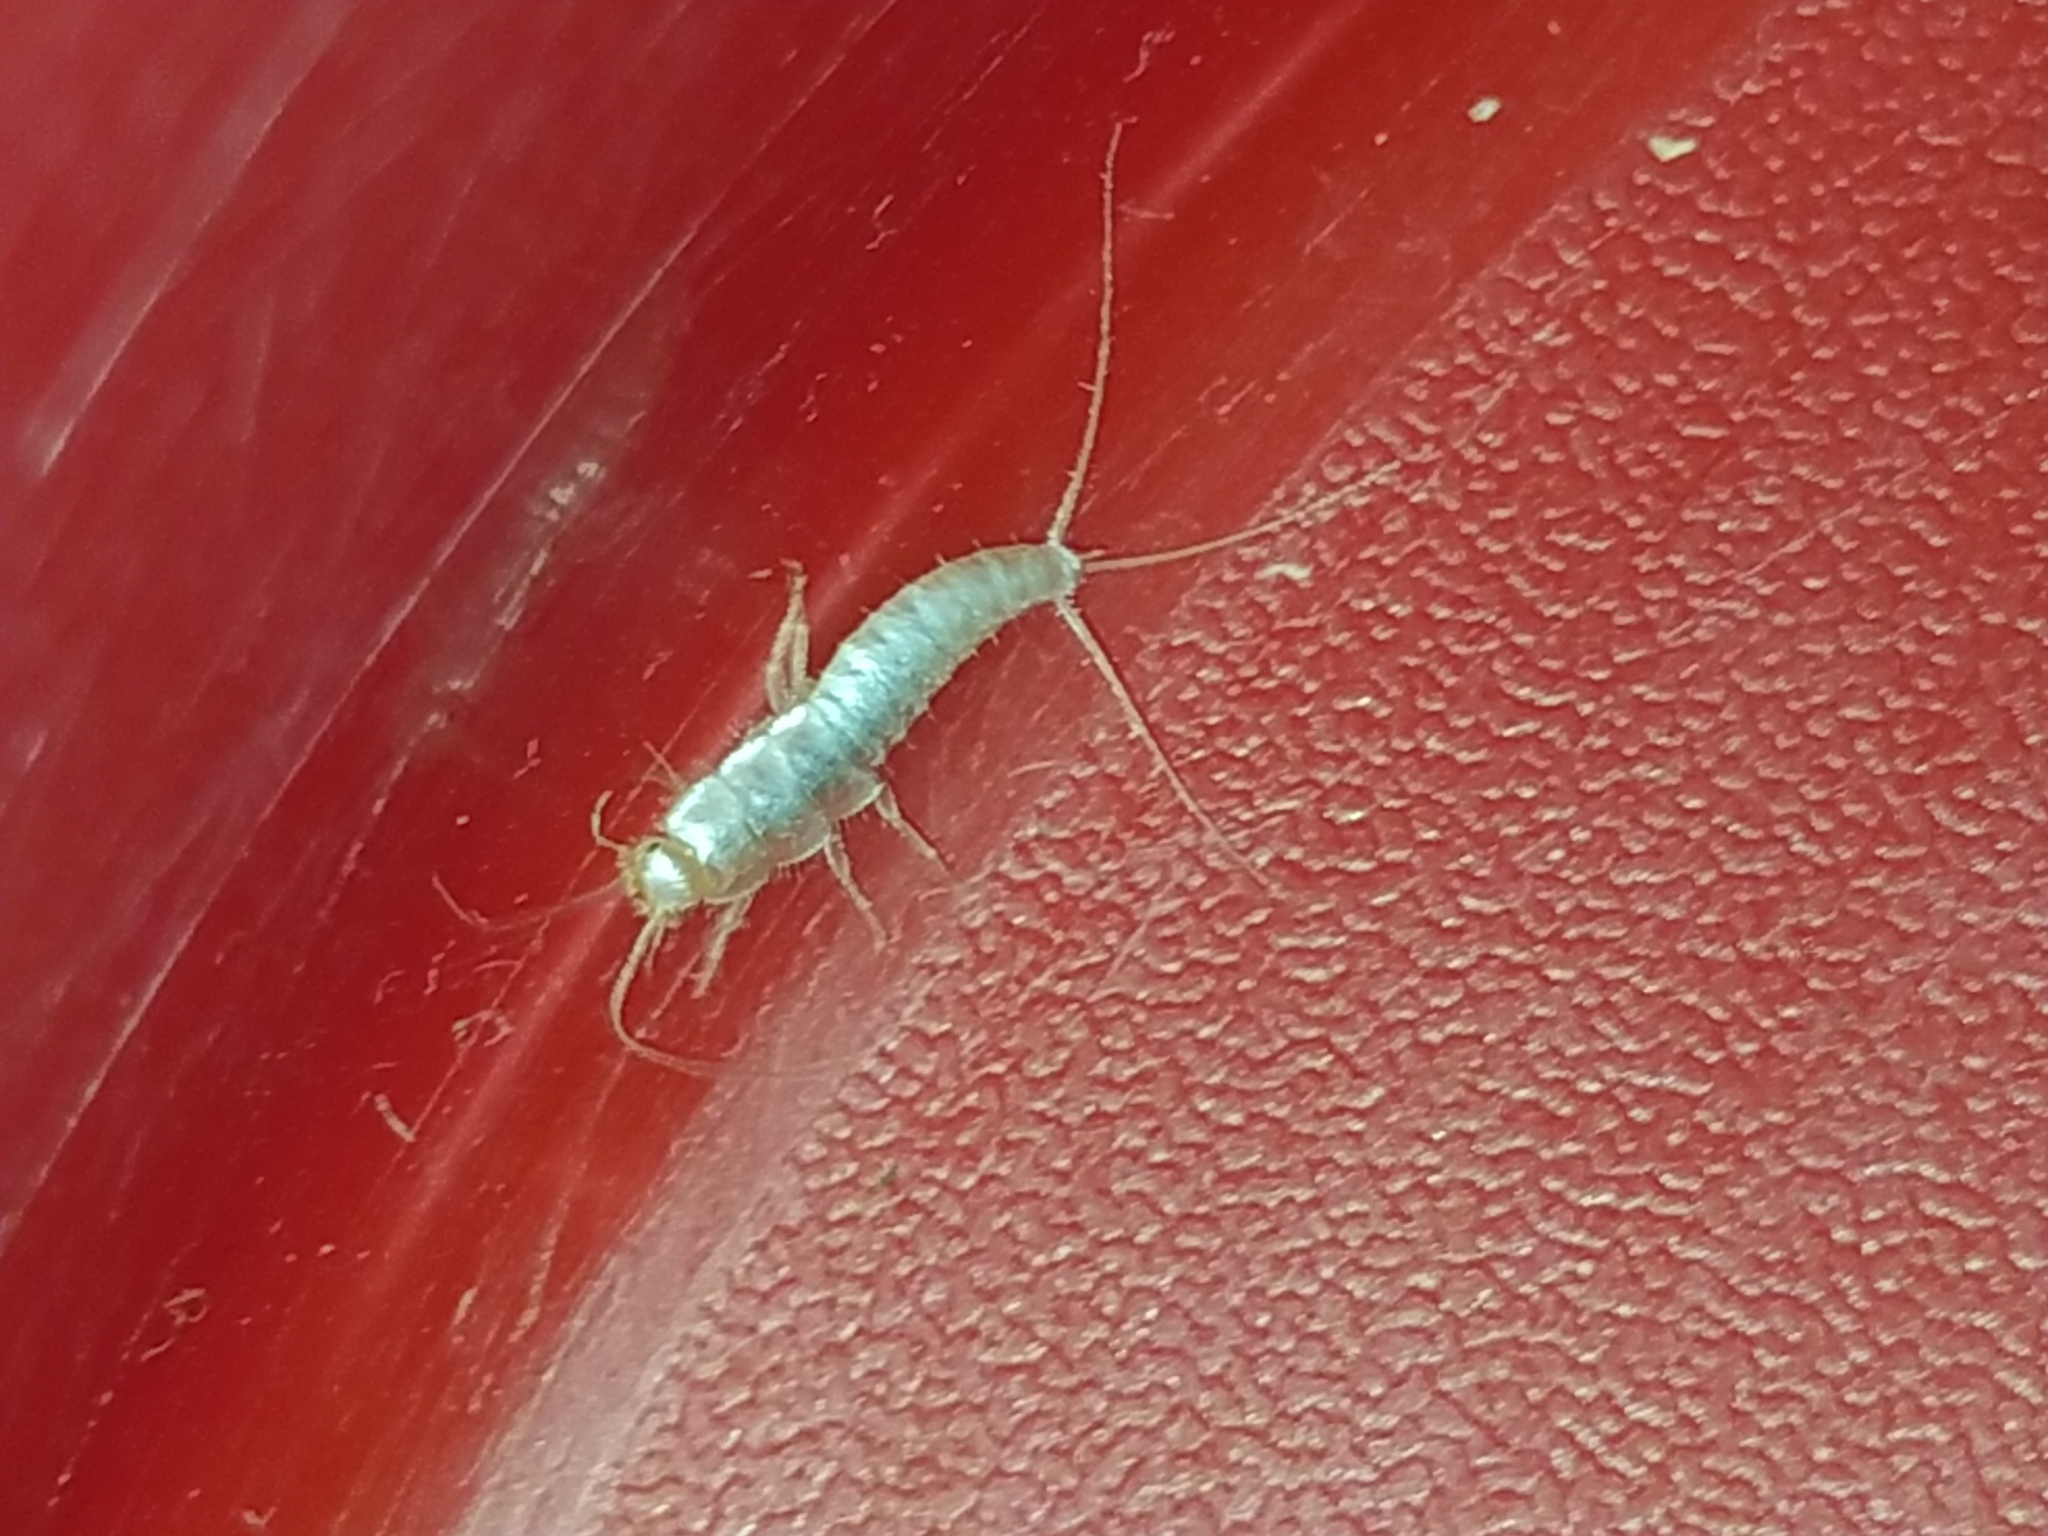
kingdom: Animalia
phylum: Arthropoda
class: Insecta
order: Zygentoma
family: Lepismatidae
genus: Ctenolepisma
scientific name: Ctenolepisma calvum
